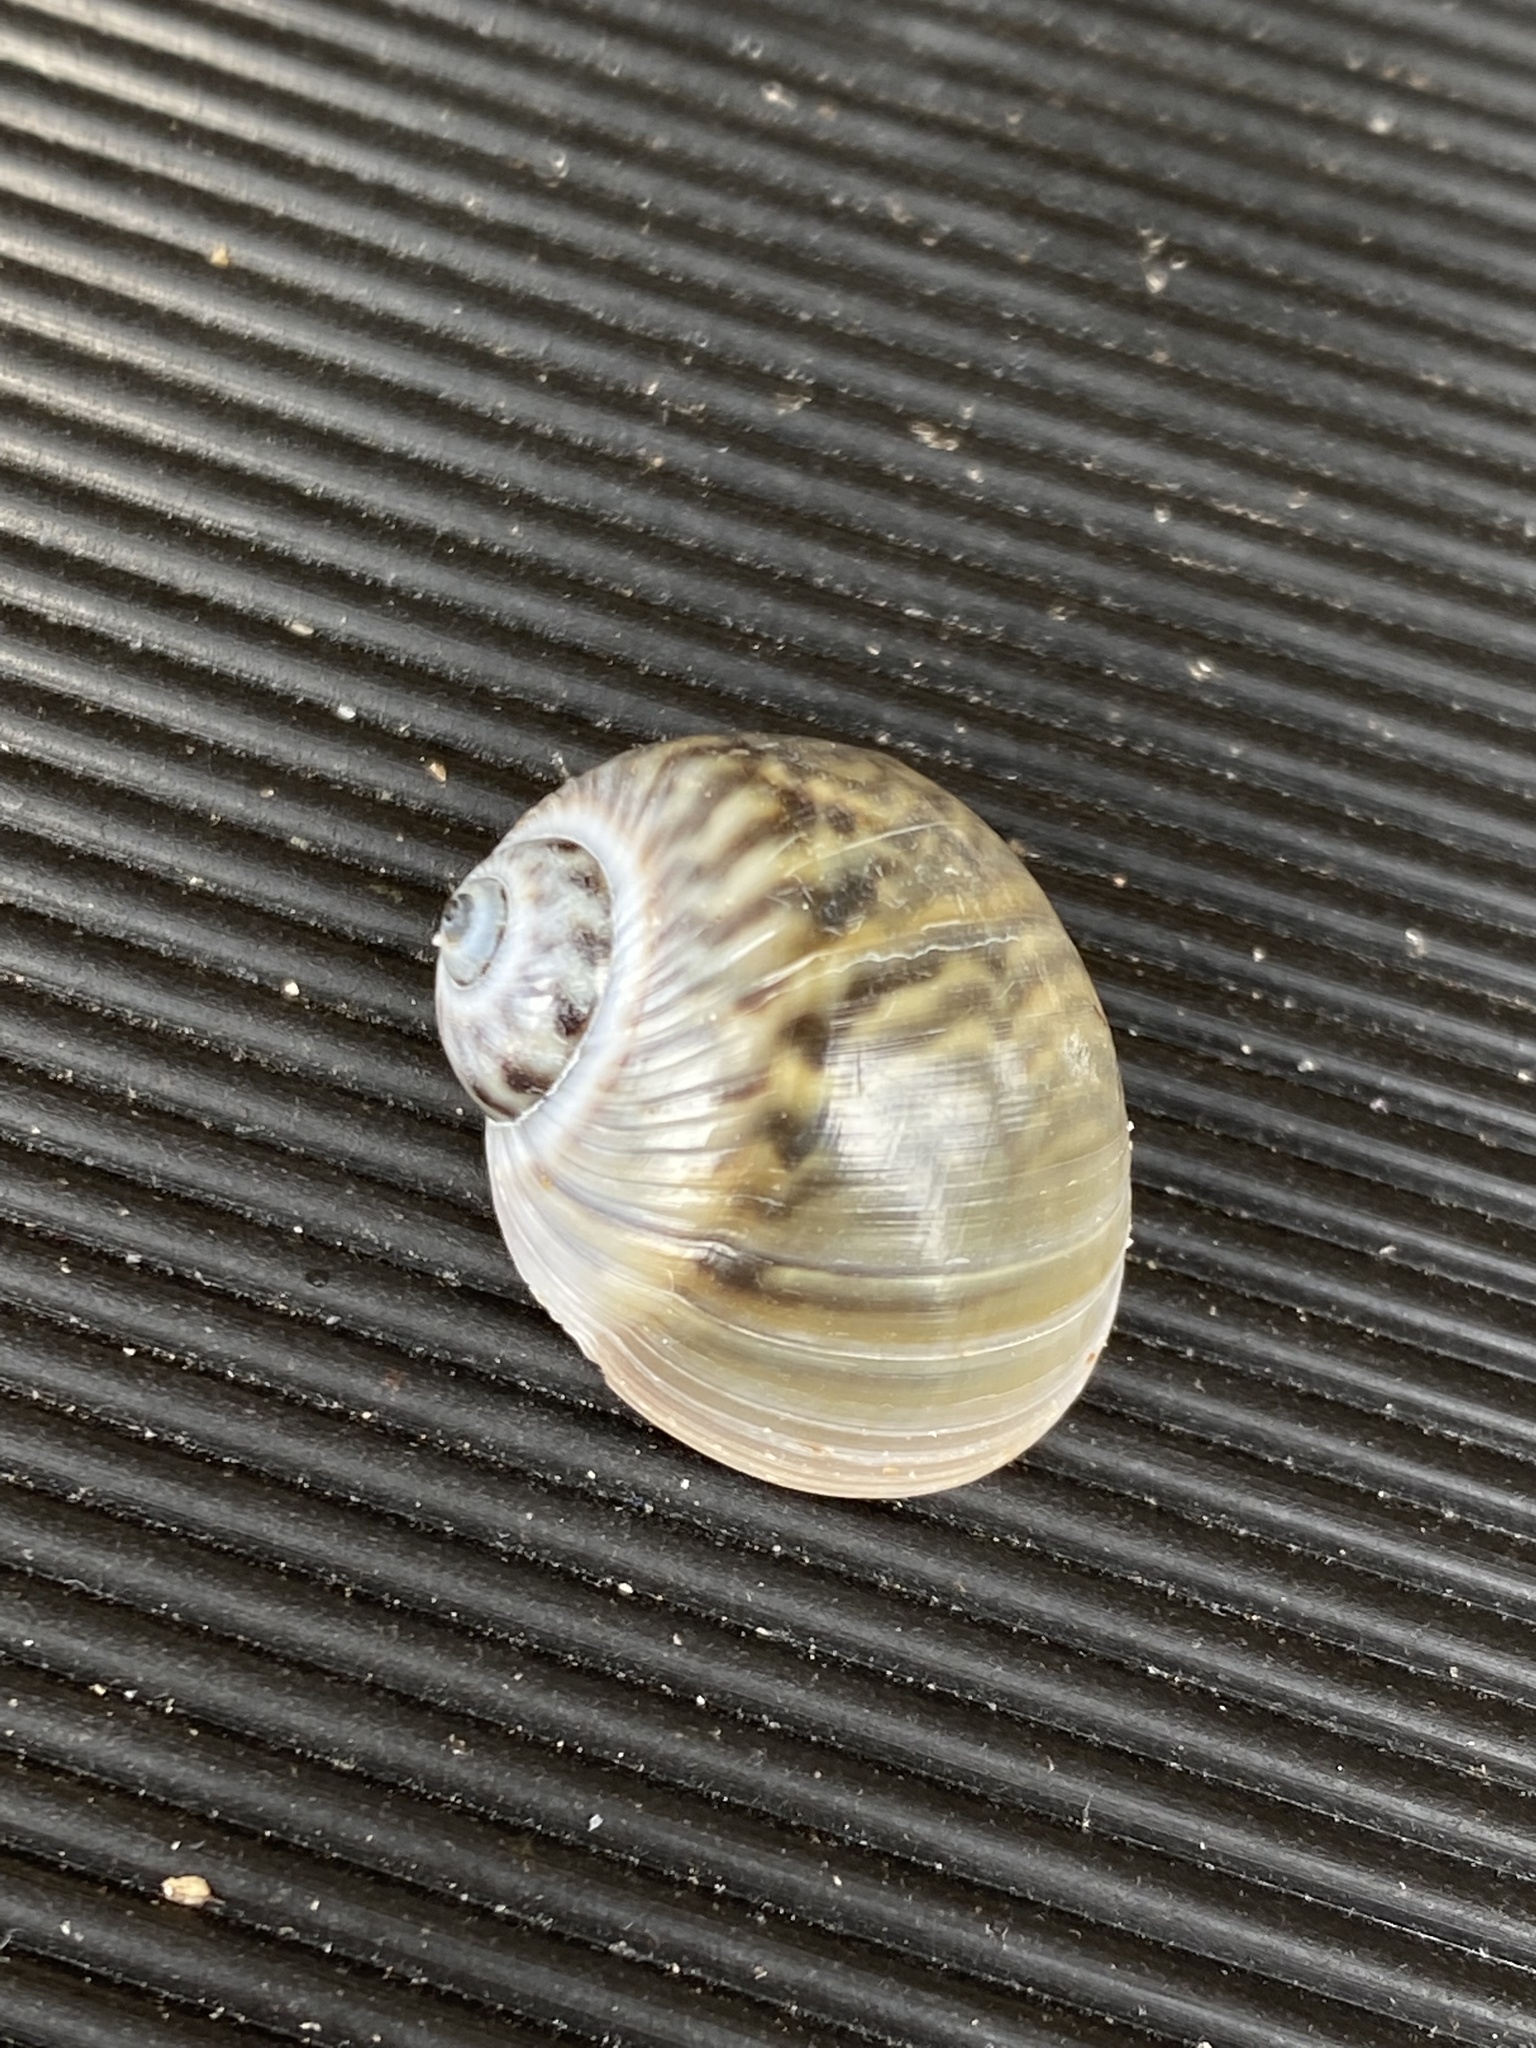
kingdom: Animalia
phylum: Mollusca
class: Gastropoda
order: Littorinimorpha
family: Naticidae
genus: Notocochlis
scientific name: Notocochlis chemnitzii
